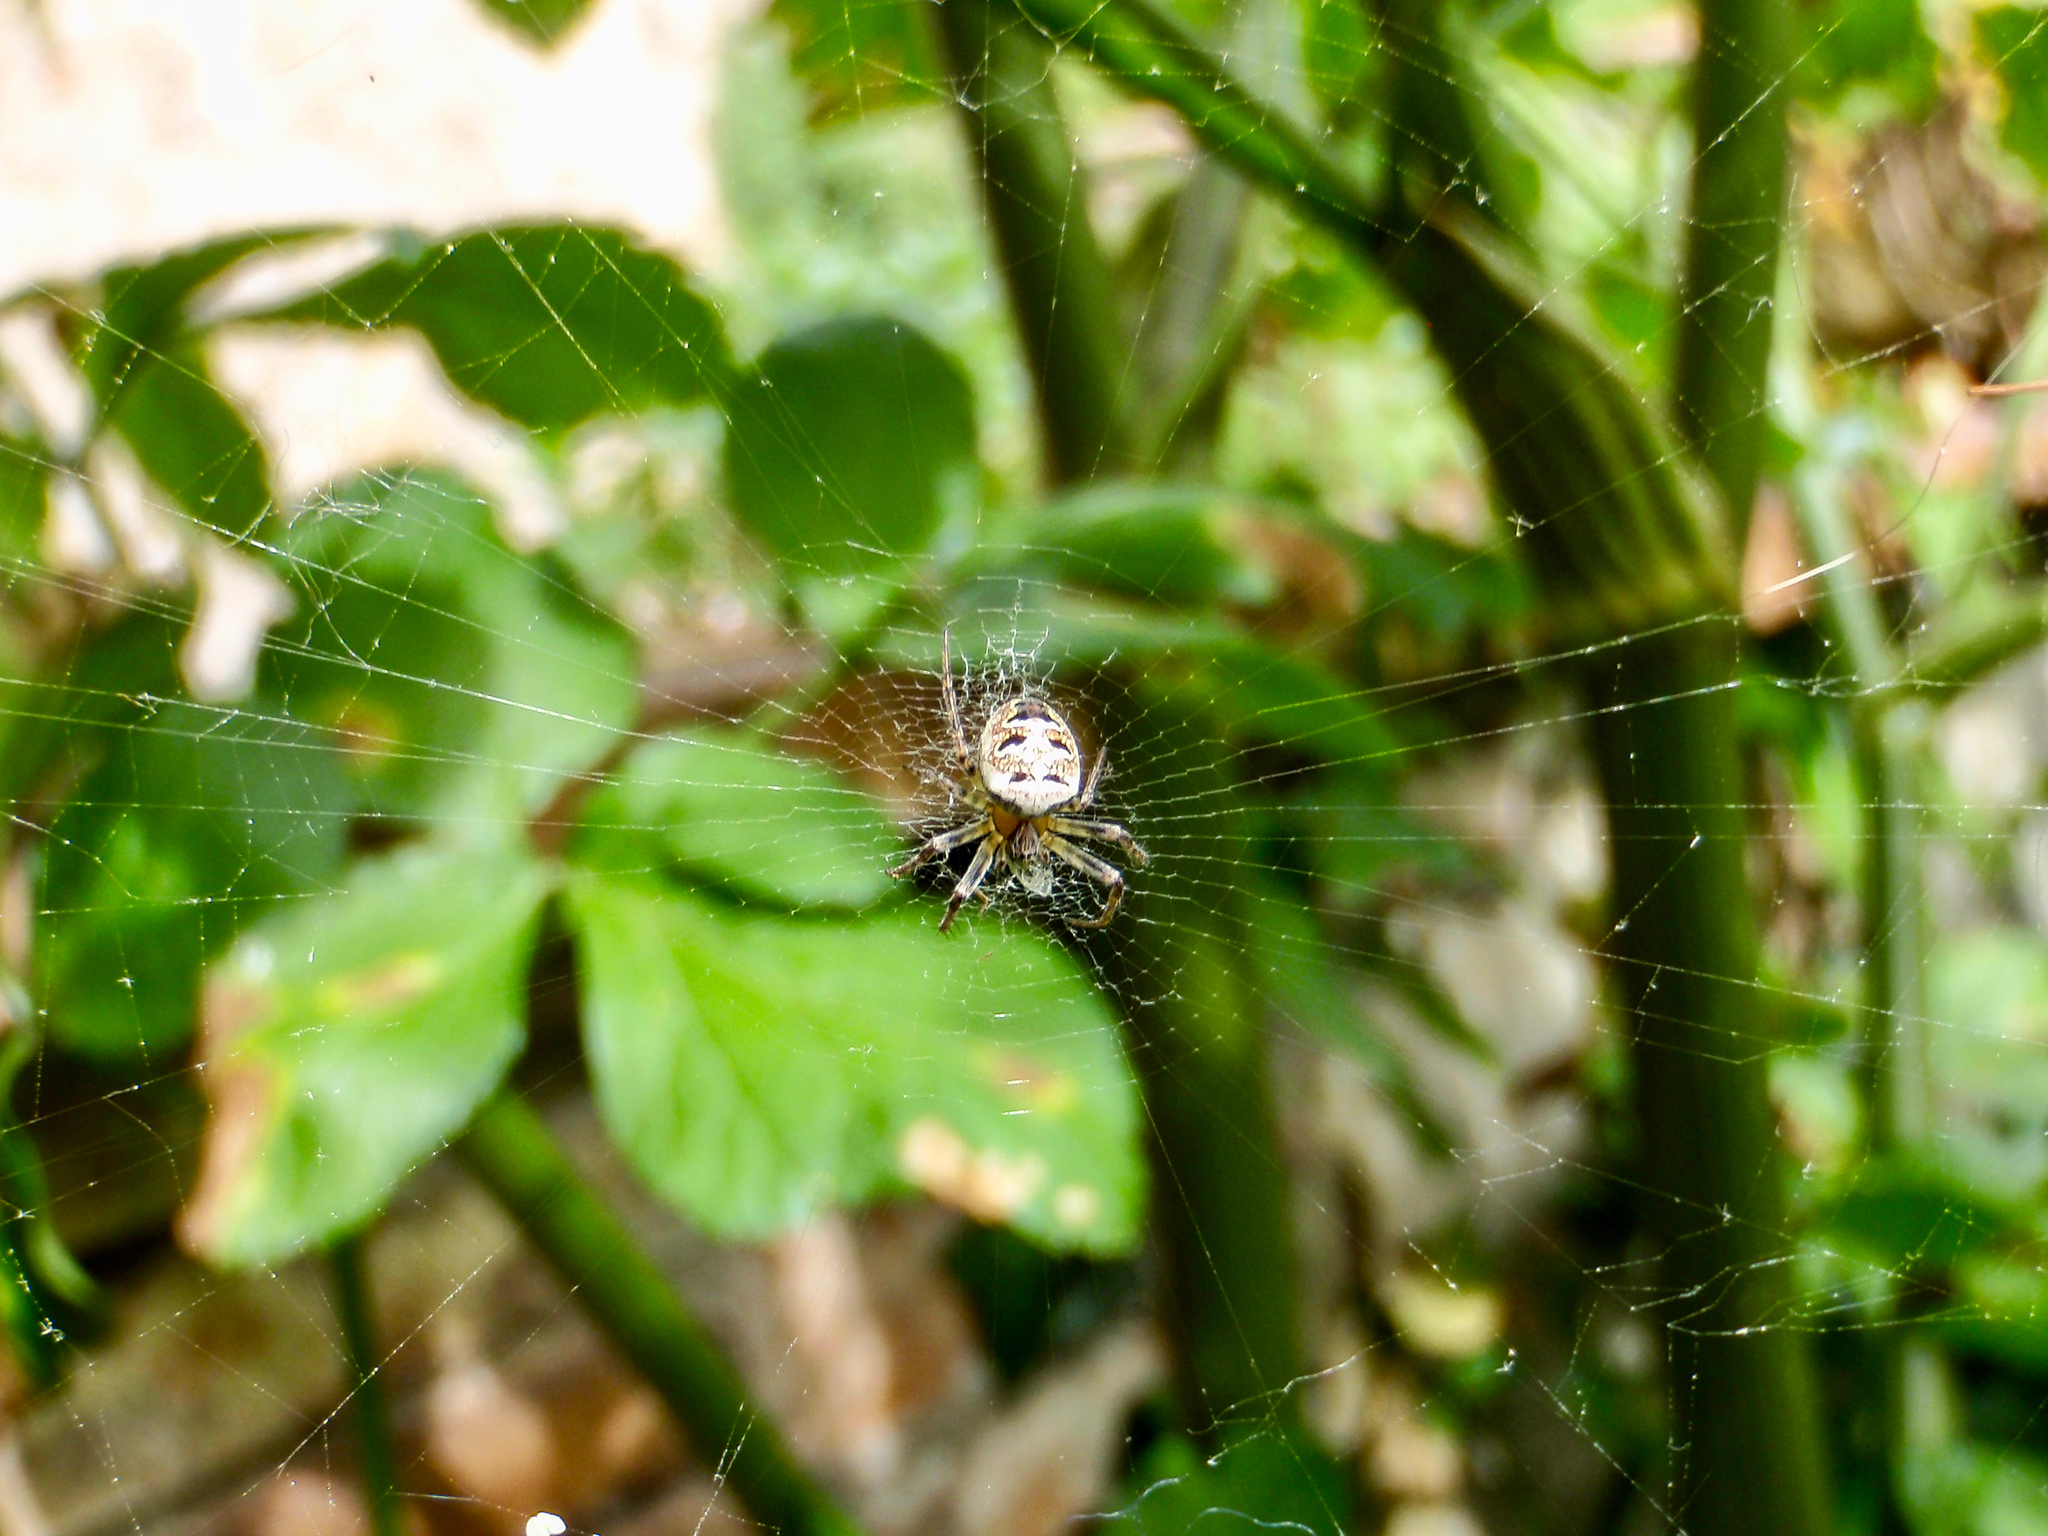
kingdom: Animalia
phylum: Arthropoda
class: Arachnida
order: Araneae
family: Araneidae
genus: Zilla
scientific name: Zilla diodia
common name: Zilla diodia
